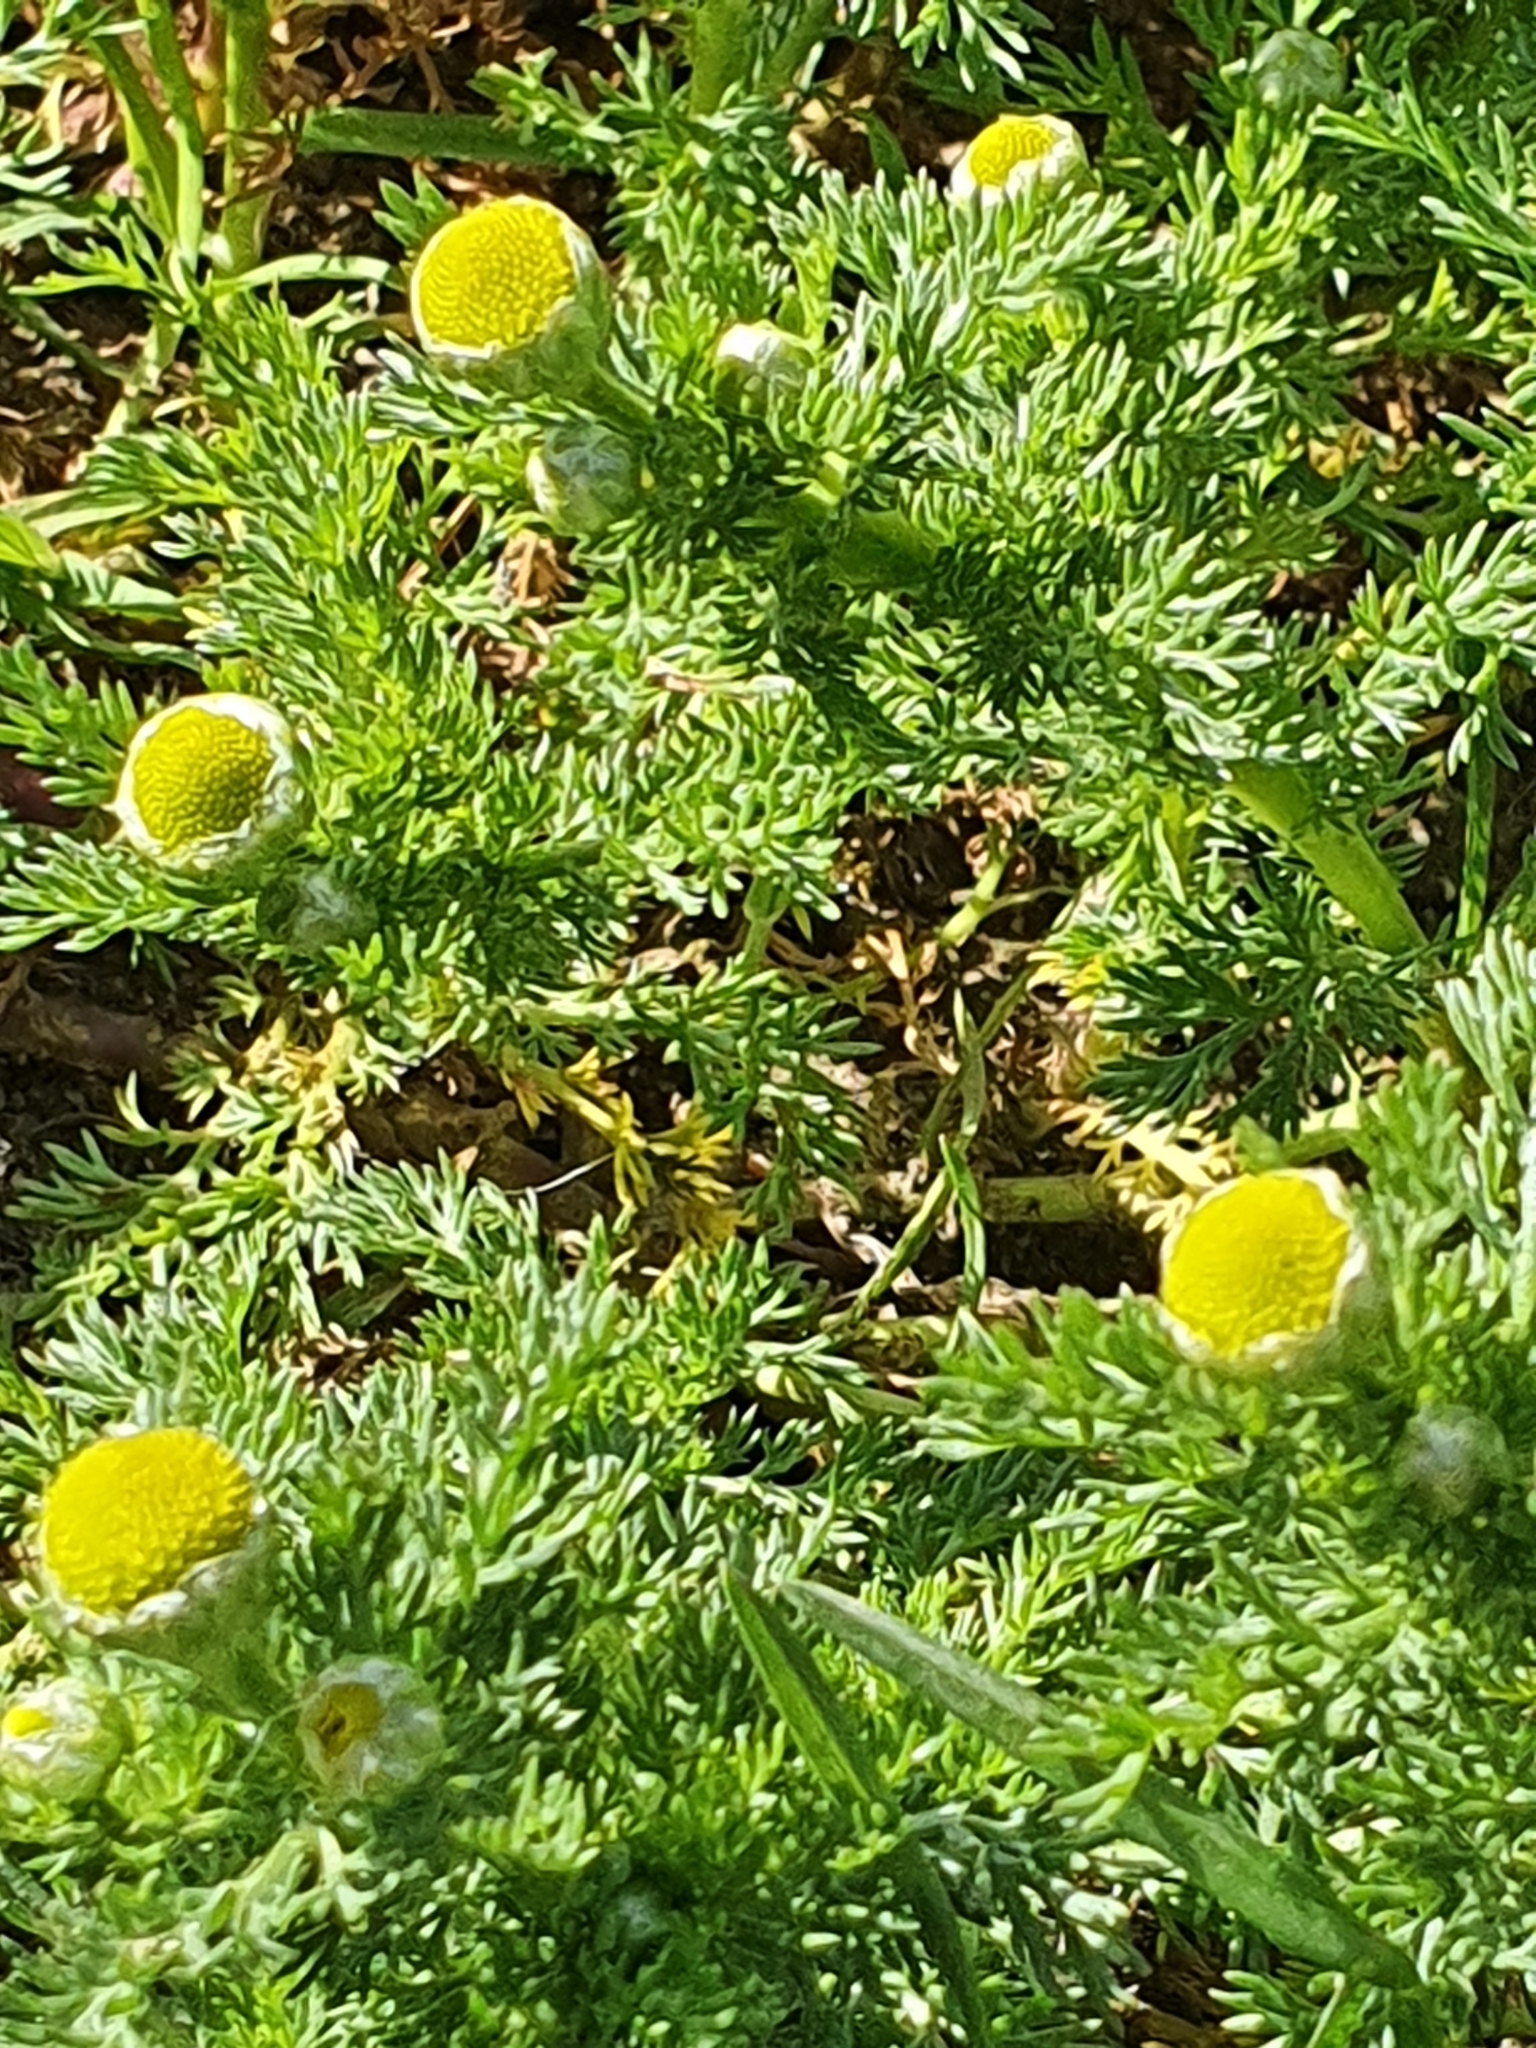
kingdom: Plantae
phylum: Tracheophyta
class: Magnoliopsida
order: Asterales
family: Asteraceae
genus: Matricaria
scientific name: Matricaria discoidea
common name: Disc mayweed
